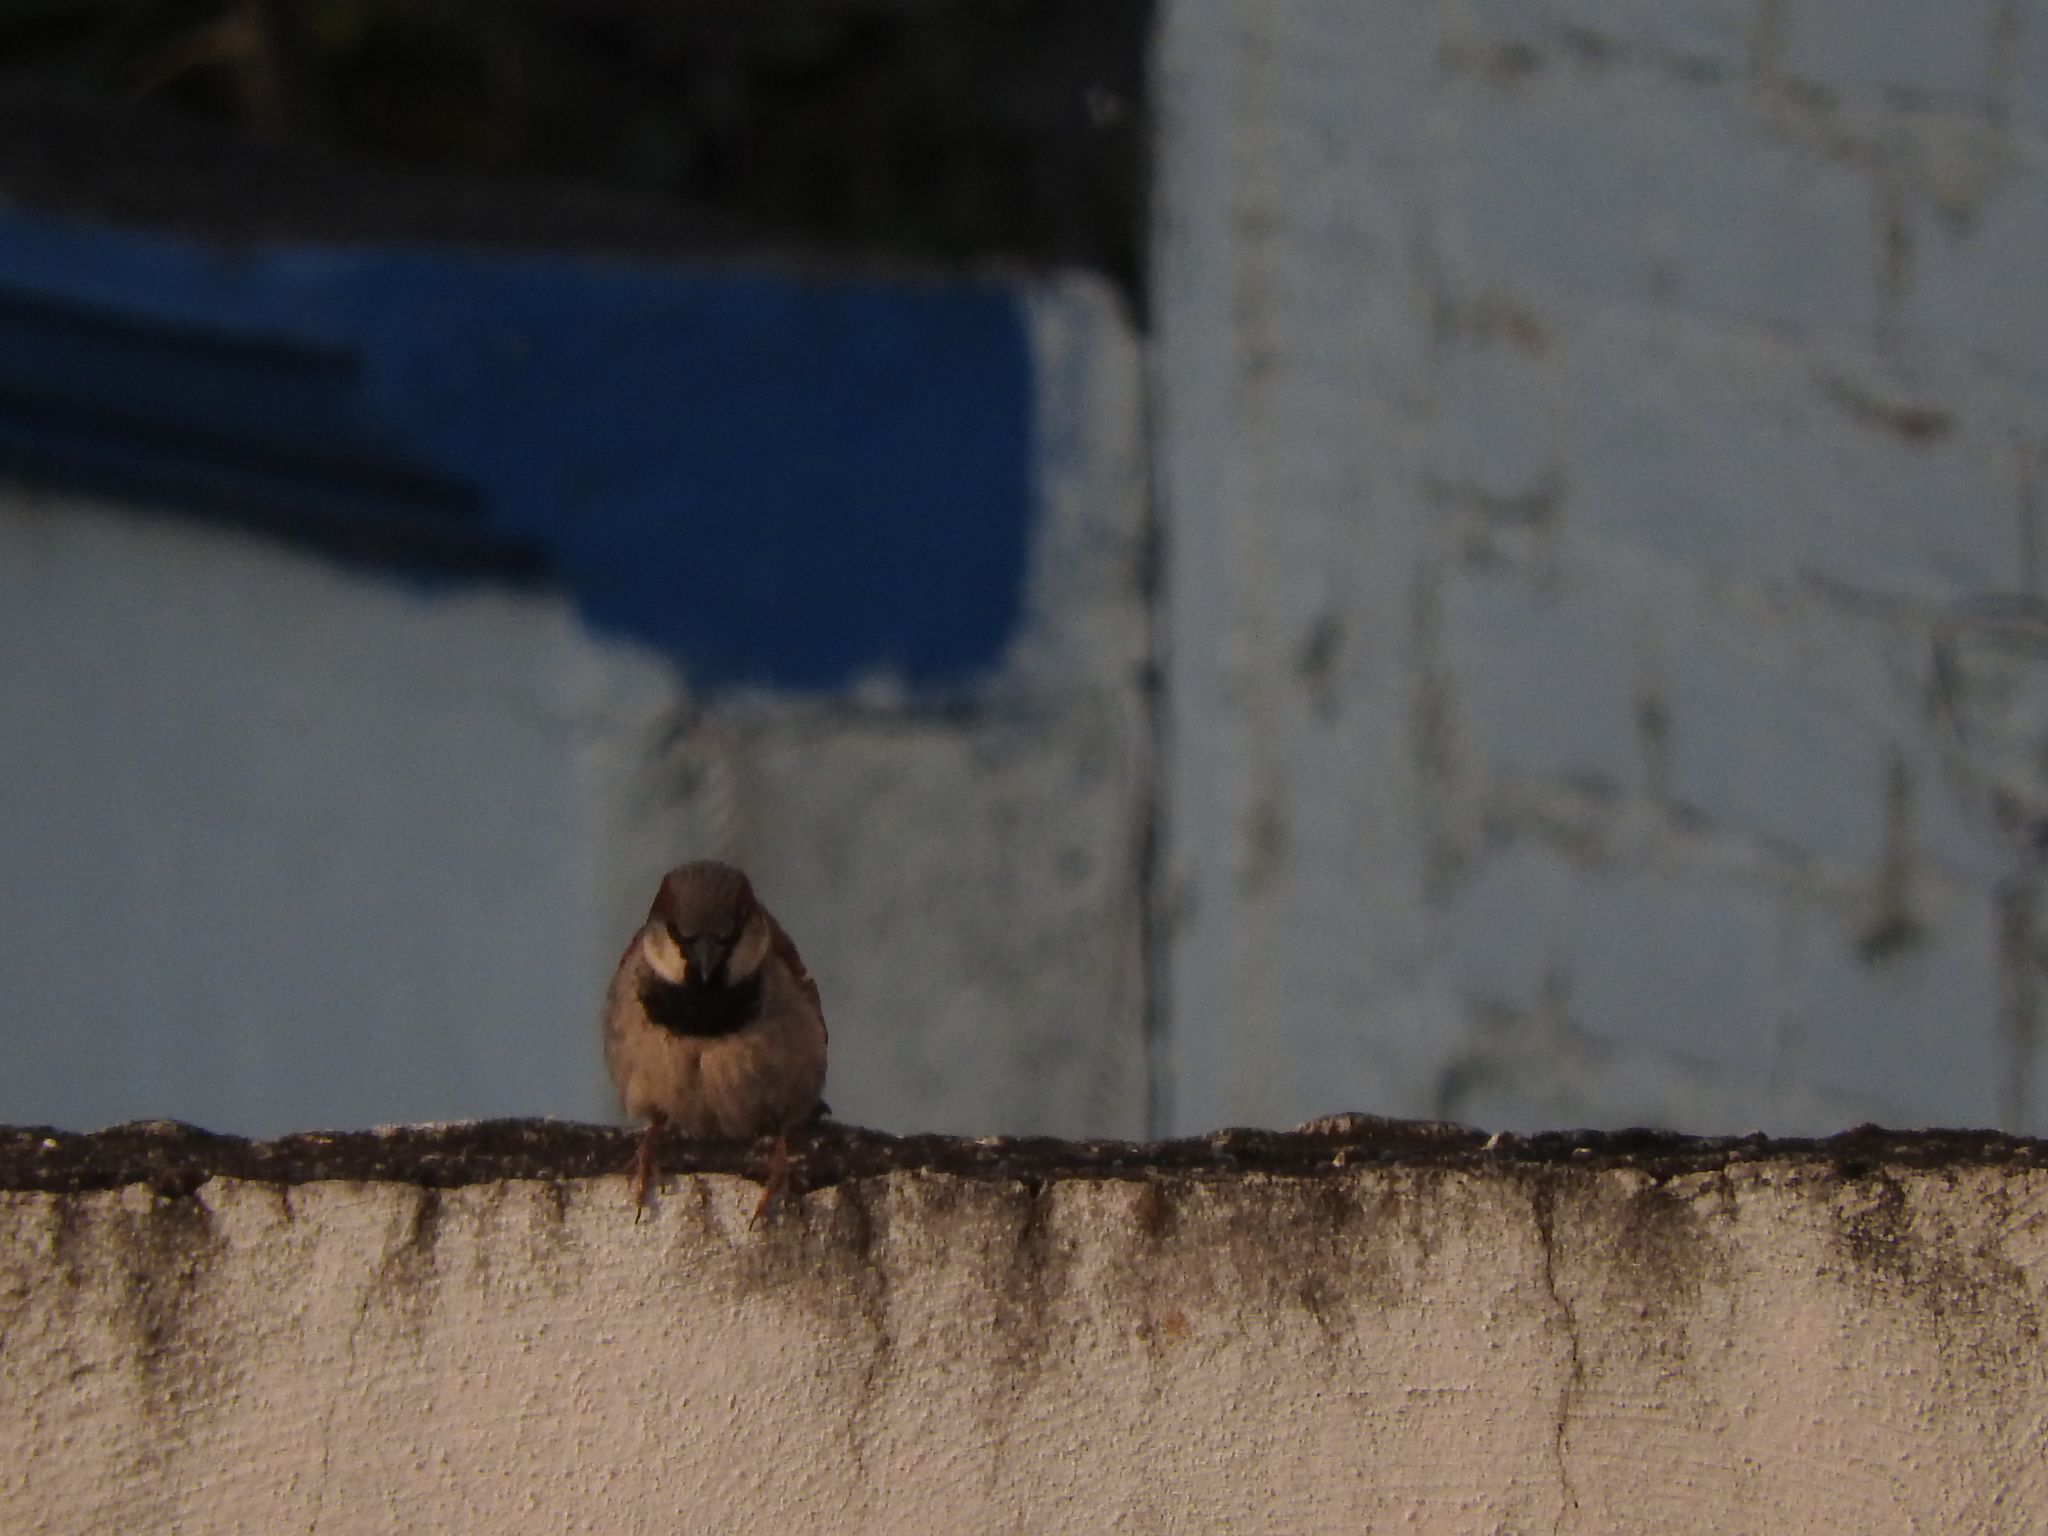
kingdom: Animalia
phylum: Chordata
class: Aves
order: Passeriformes
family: Passeridae
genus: Passer
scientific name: Passer domesticus
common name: House sparrow
